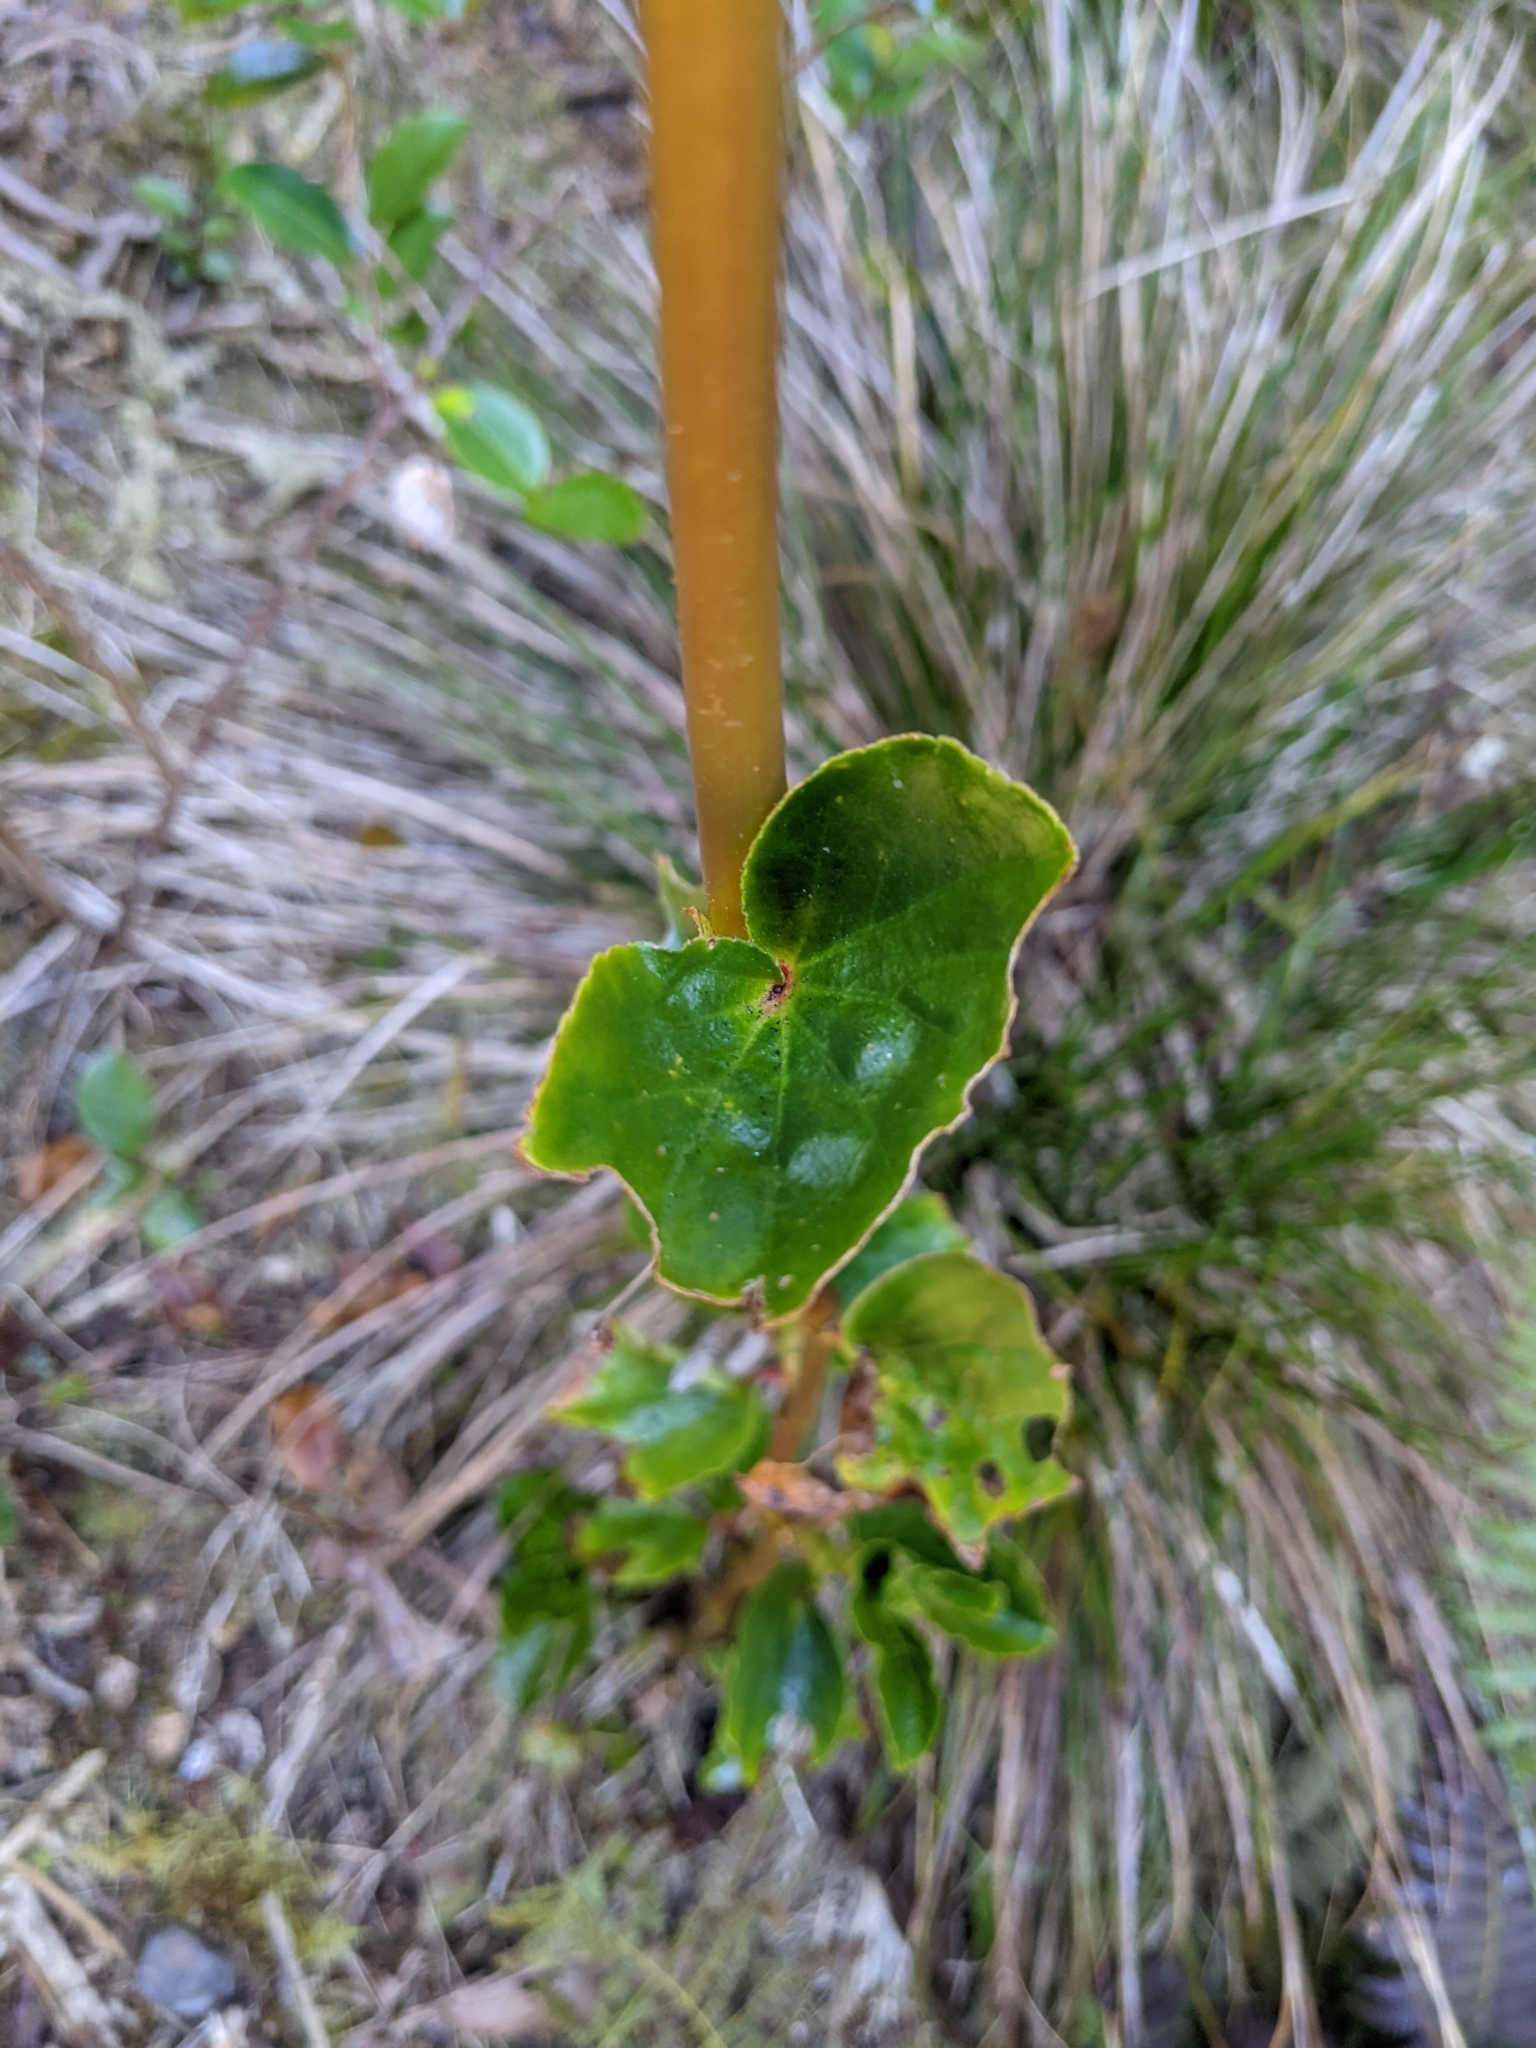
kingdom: Plantae
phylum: Tracheophyta
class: Magnoliopsida
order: Cucurbitales
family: Begoniaceae
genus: Begonia
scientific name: Begonia cucullata
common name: Clubbed begonia
